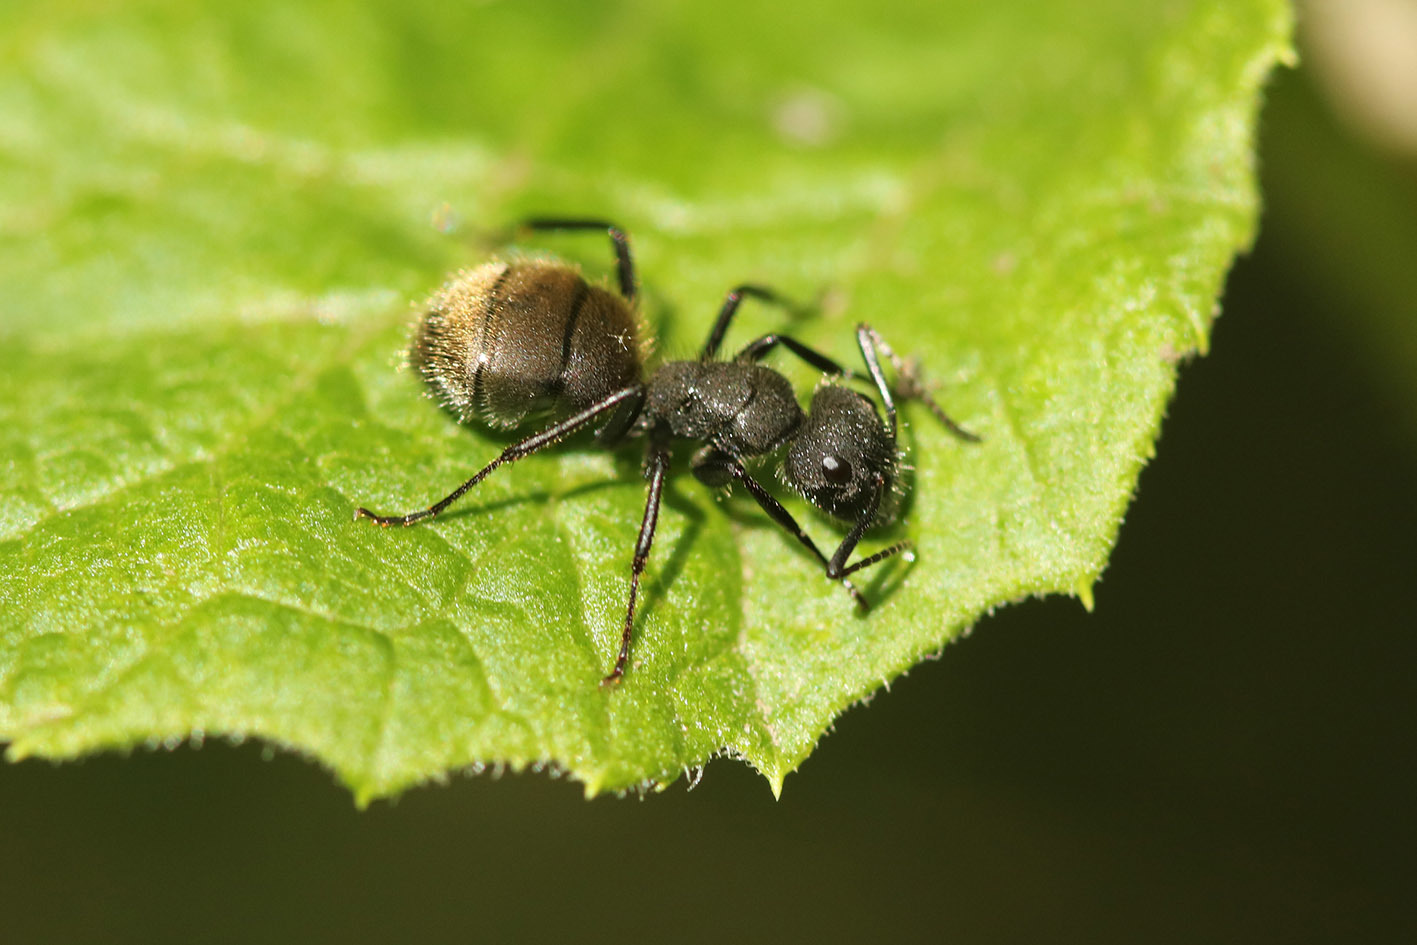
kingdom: Animalia
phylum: Arthropoda
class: Insecta
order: Hymenoptera
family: Formicidae
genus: Camponotus
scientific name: Camponotus mus
